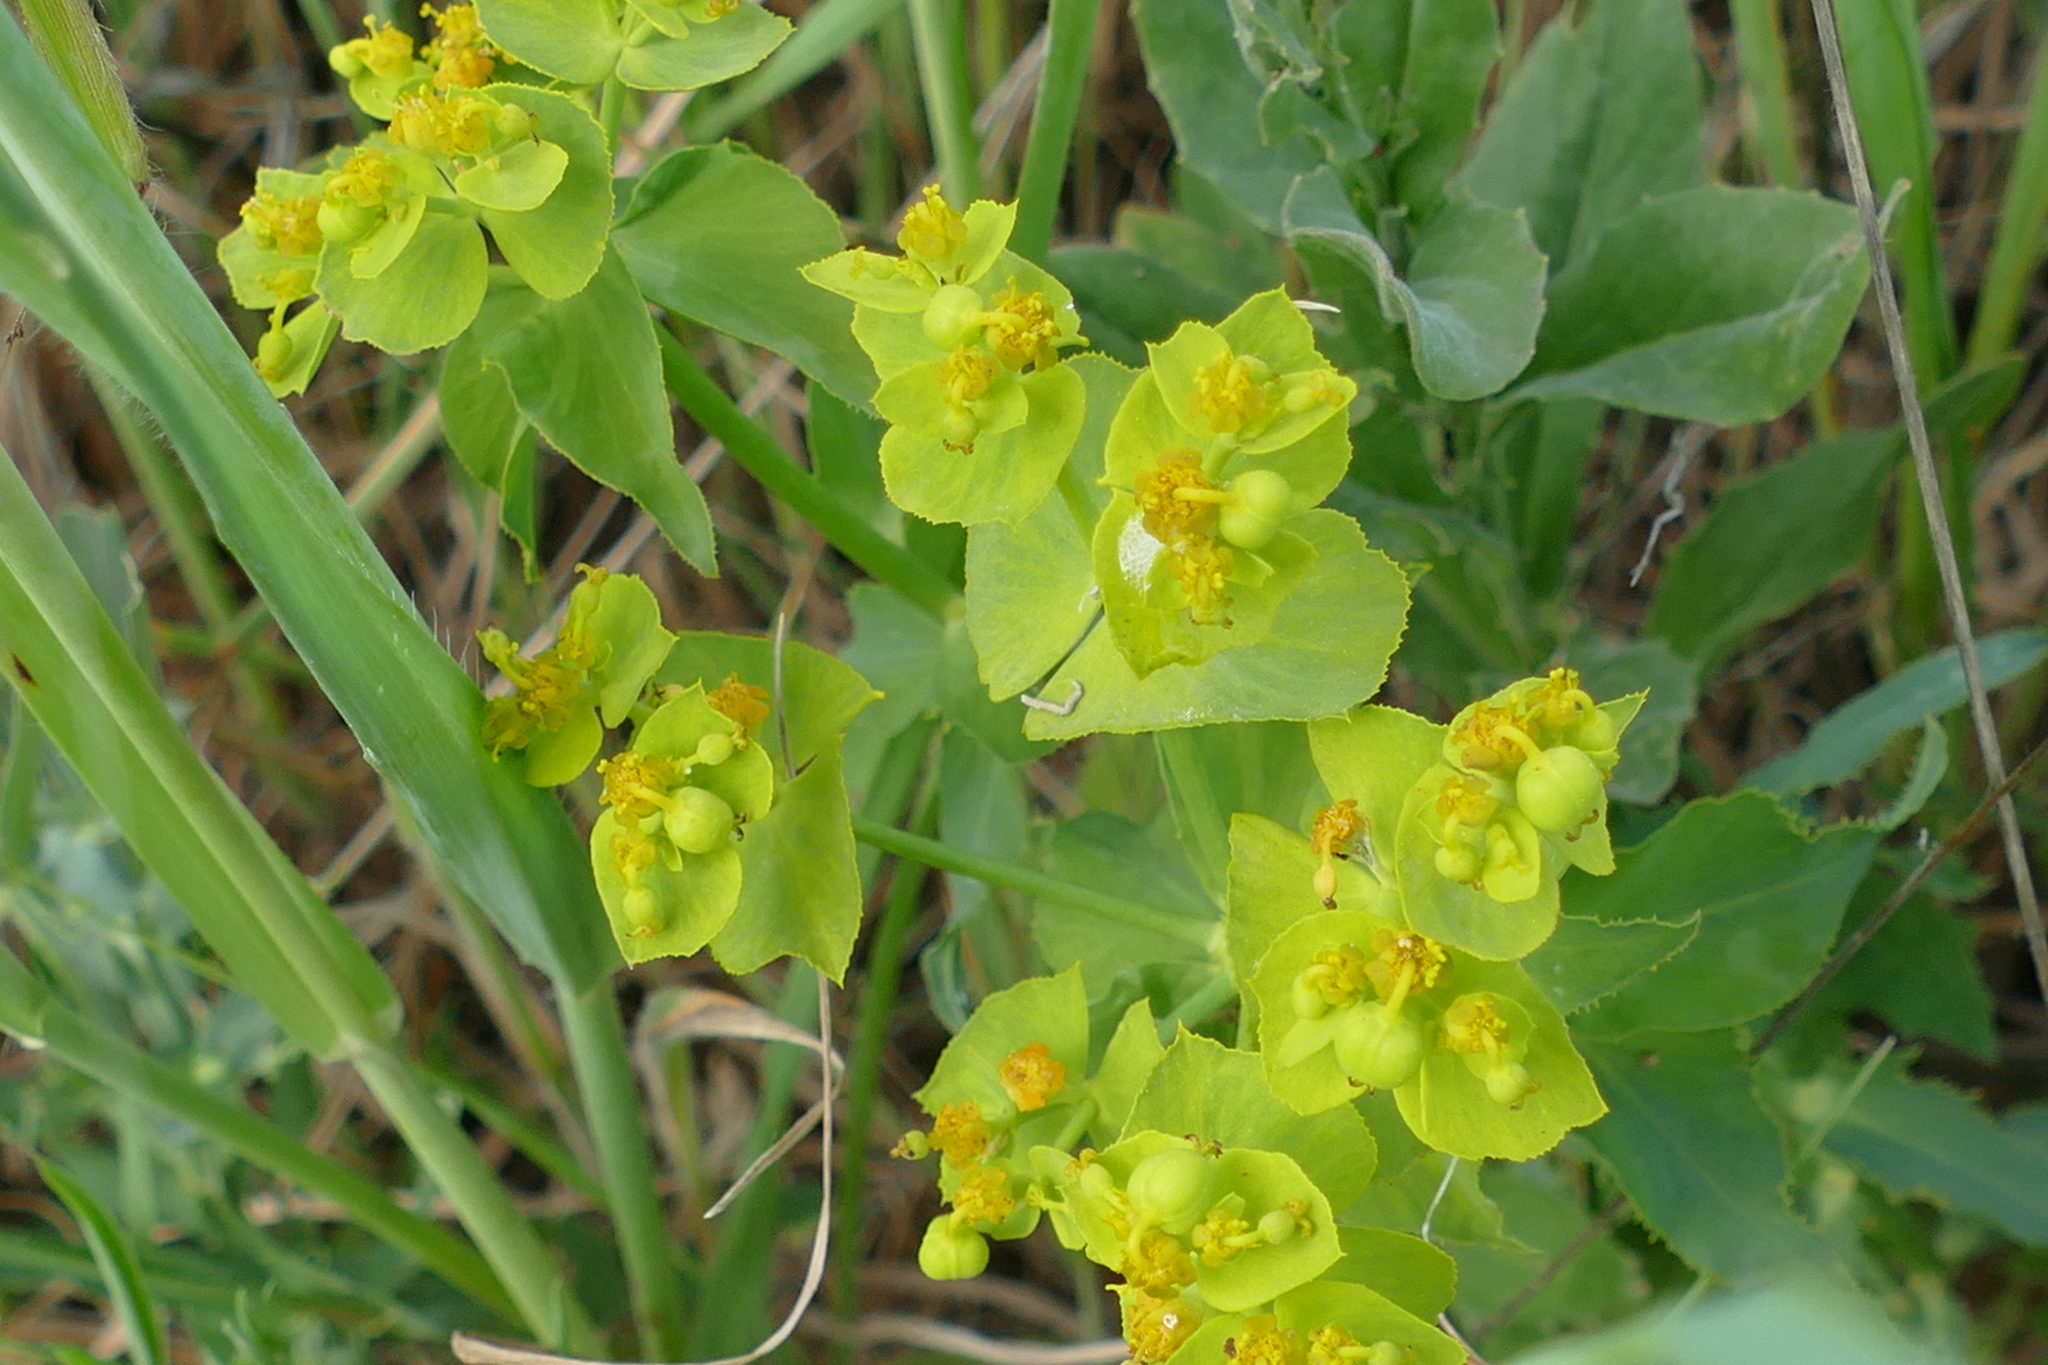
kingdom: Plantae
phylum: Tracheophyta
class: Magnoliopsida
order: Malpighiales
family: Euphorbiaceae
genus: Euphorbia
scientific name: Euphorbia serrata
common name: Serrate spurge
